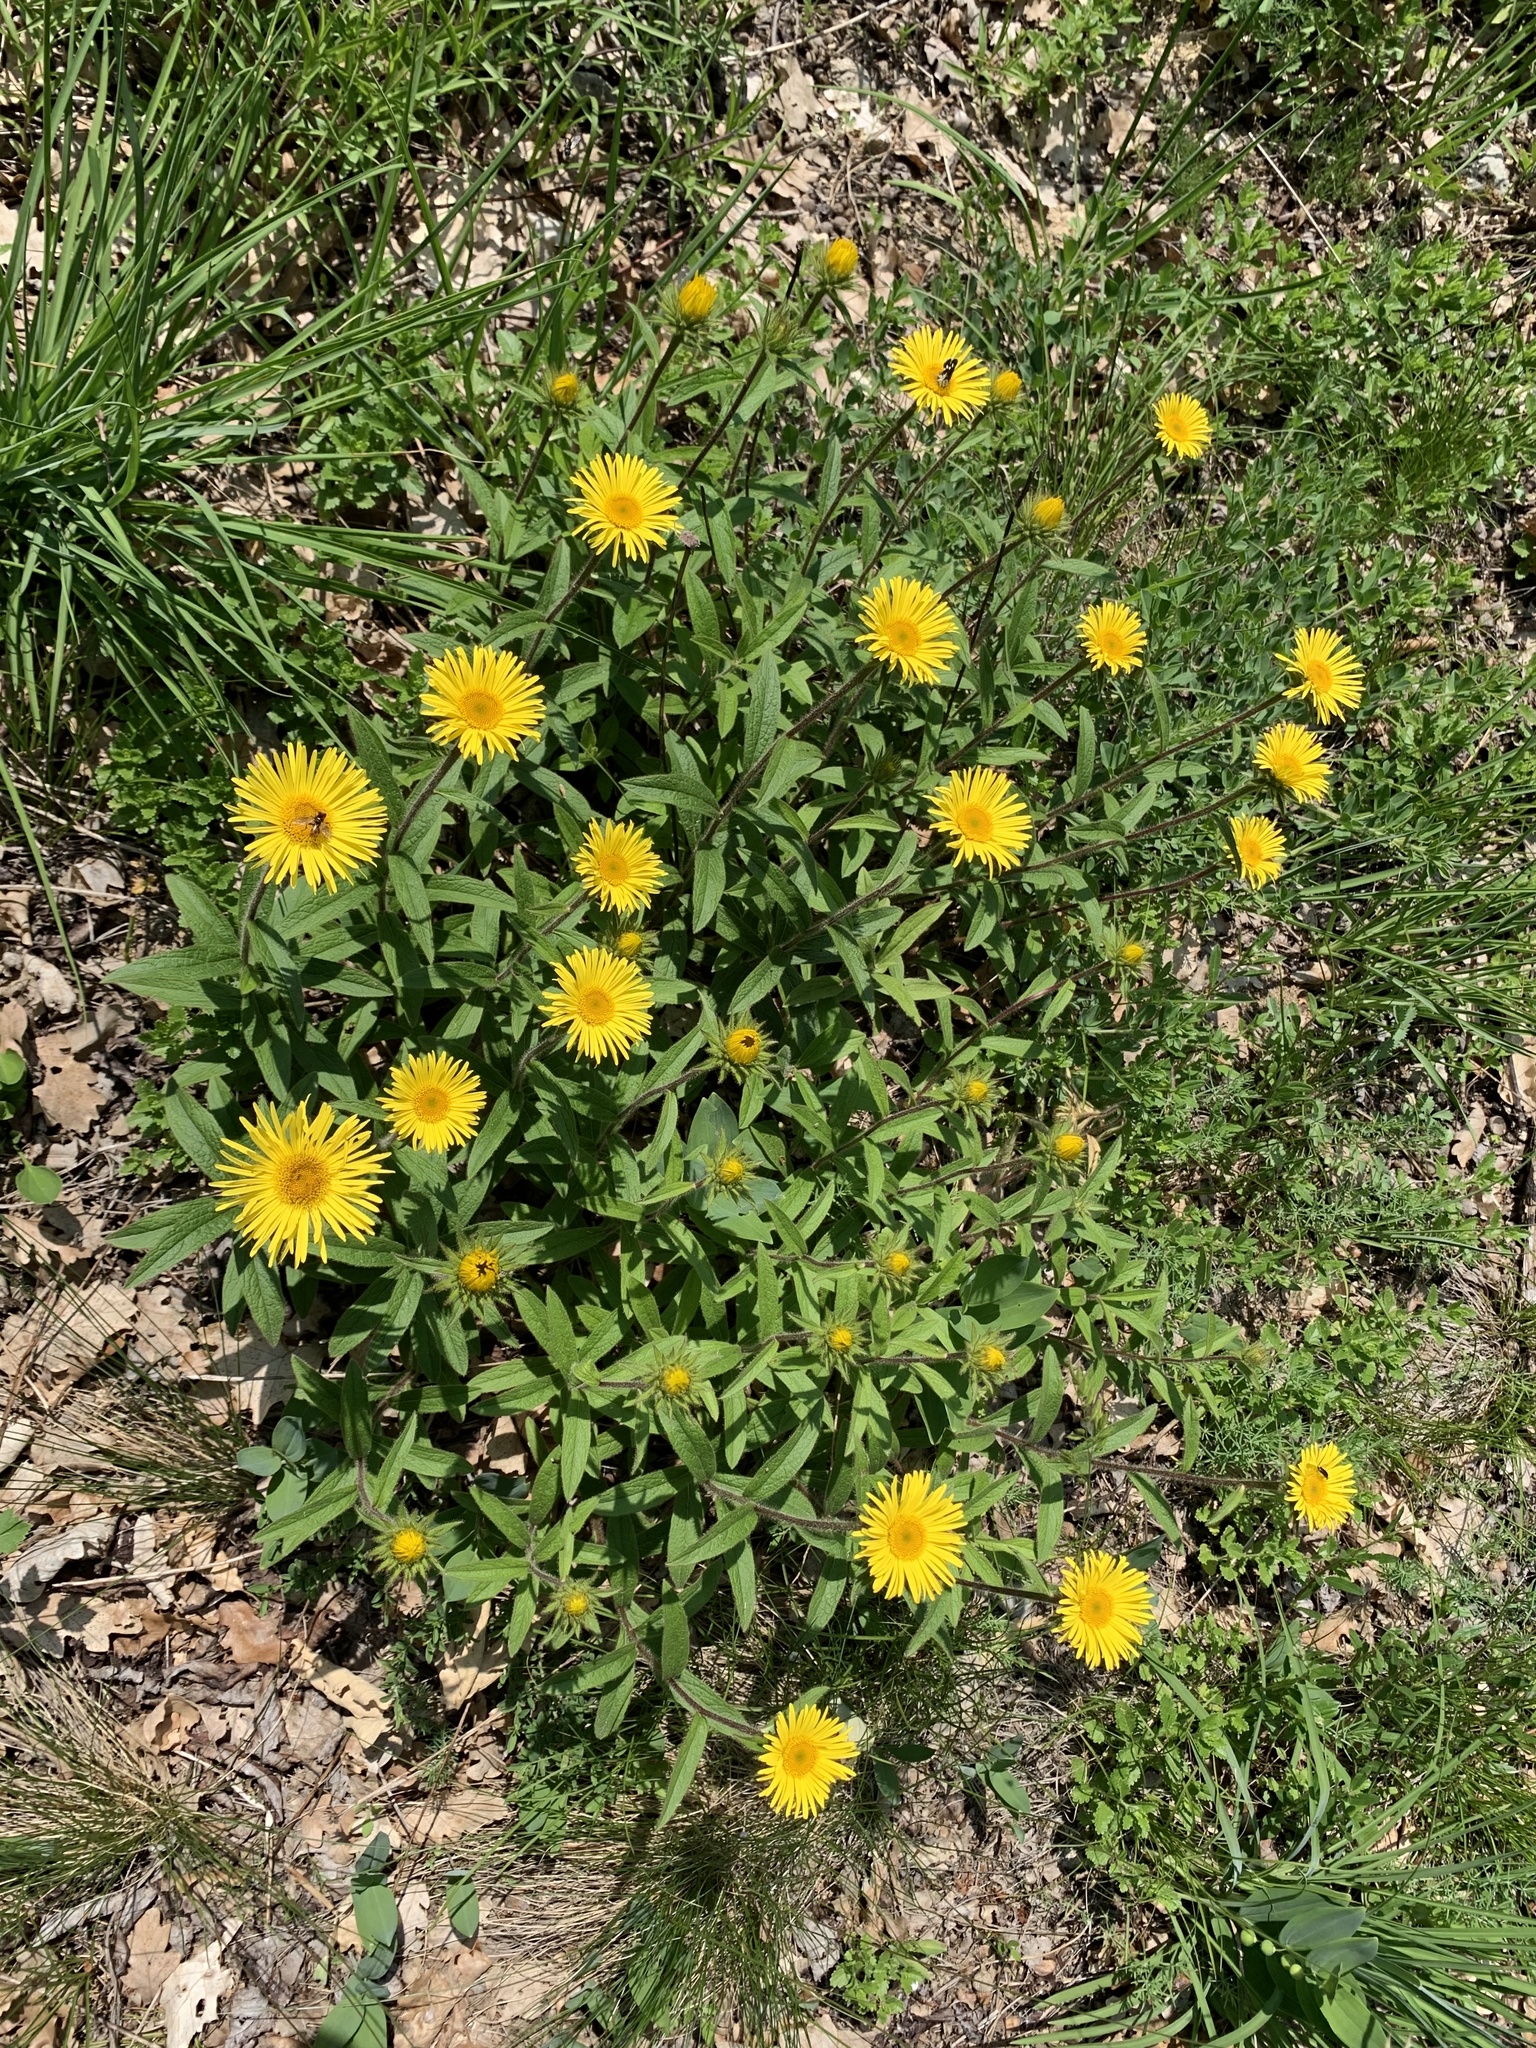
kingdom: Plantae
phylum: Tracheophyta
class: Magnoliopsida
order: Asterales
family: Asteraceae
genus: Pentanema
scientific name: Pentanema hirtum
